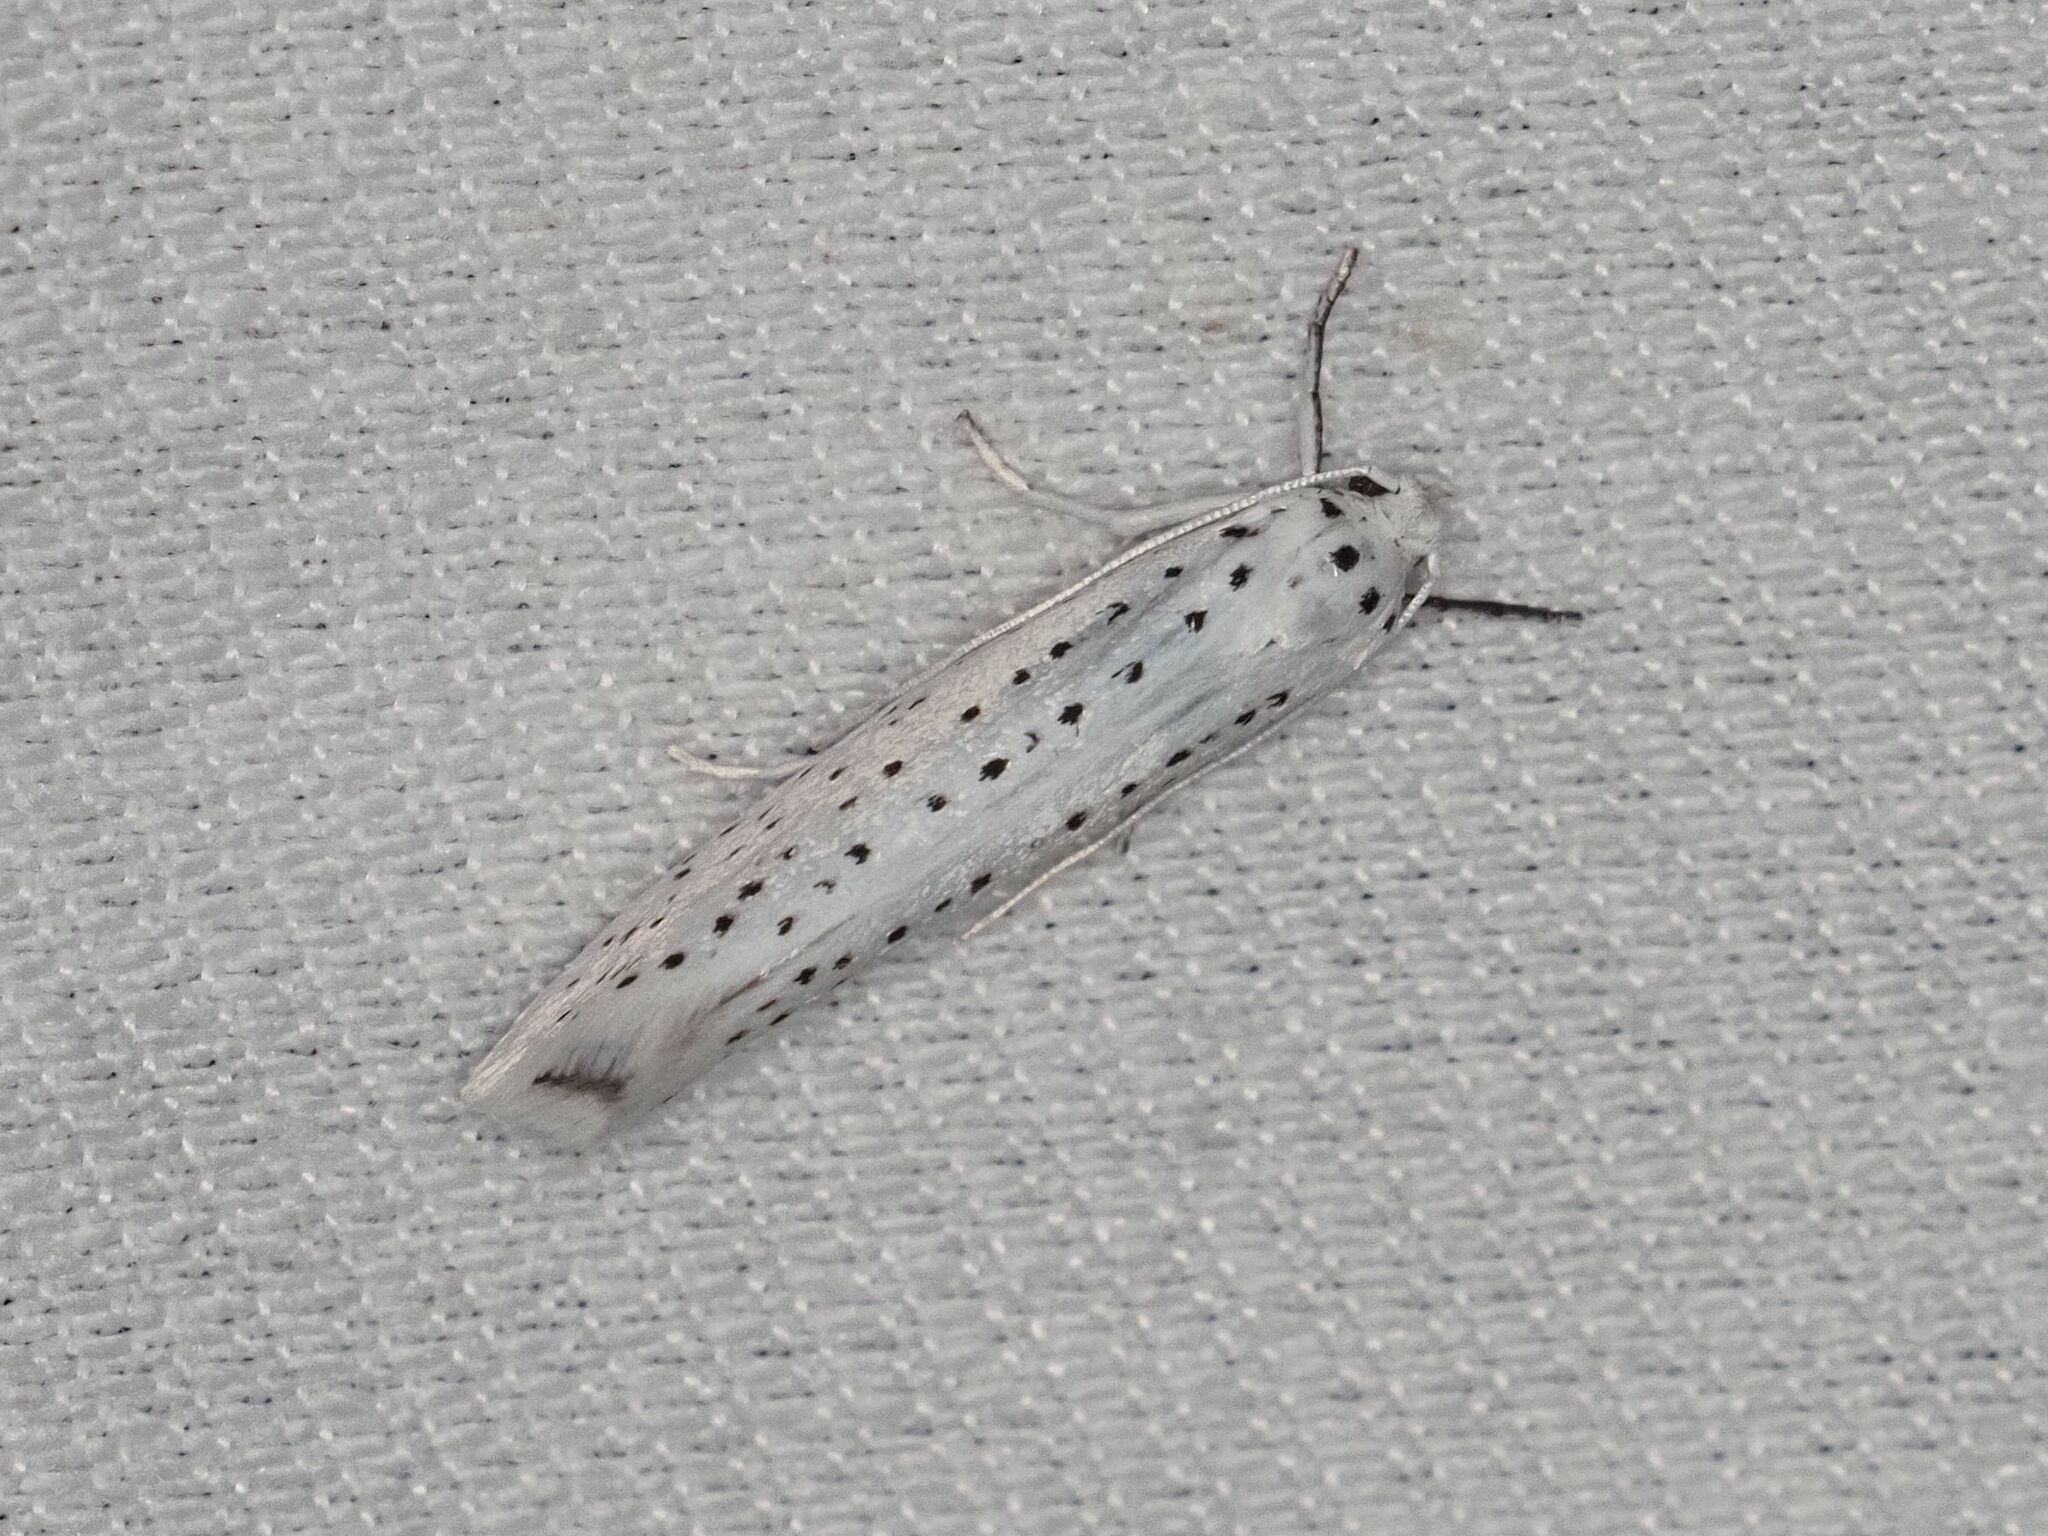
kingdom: Animalia
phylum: Arthropoda
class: Insecta
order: Lepidoptera
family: Yponomeutidae
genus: Yponomeuta
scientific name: Yponomeuta evonymella
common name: Bird-cherry ermine
